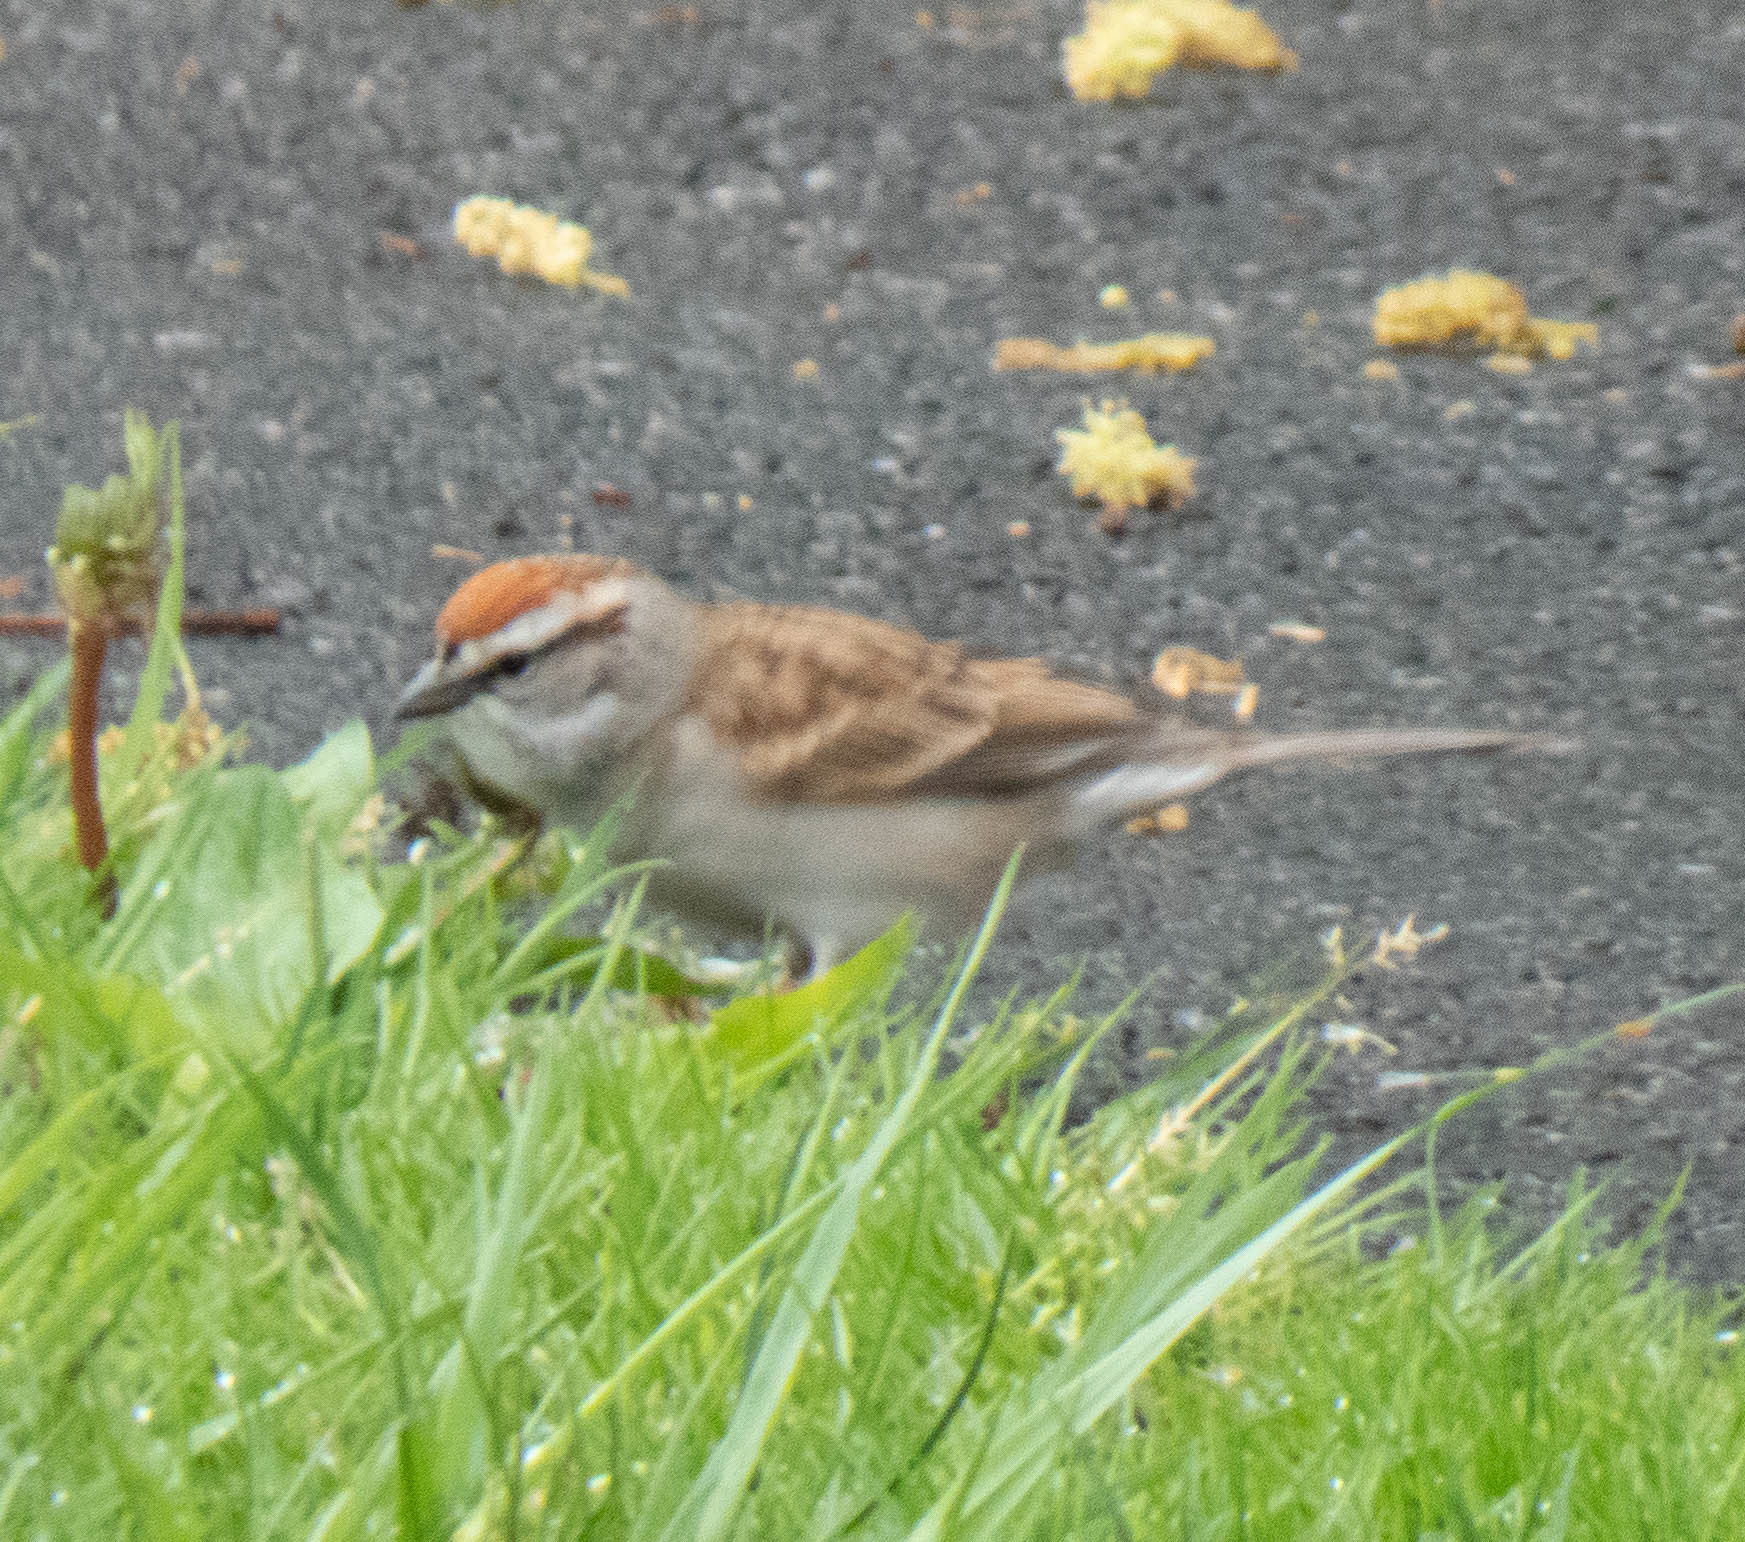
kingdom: Animalia
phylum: Chordata
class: Aves
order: Passeriformes
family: Passerellidae
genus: Spizella
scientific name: Spizella passerina
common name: Chipping sparrow
